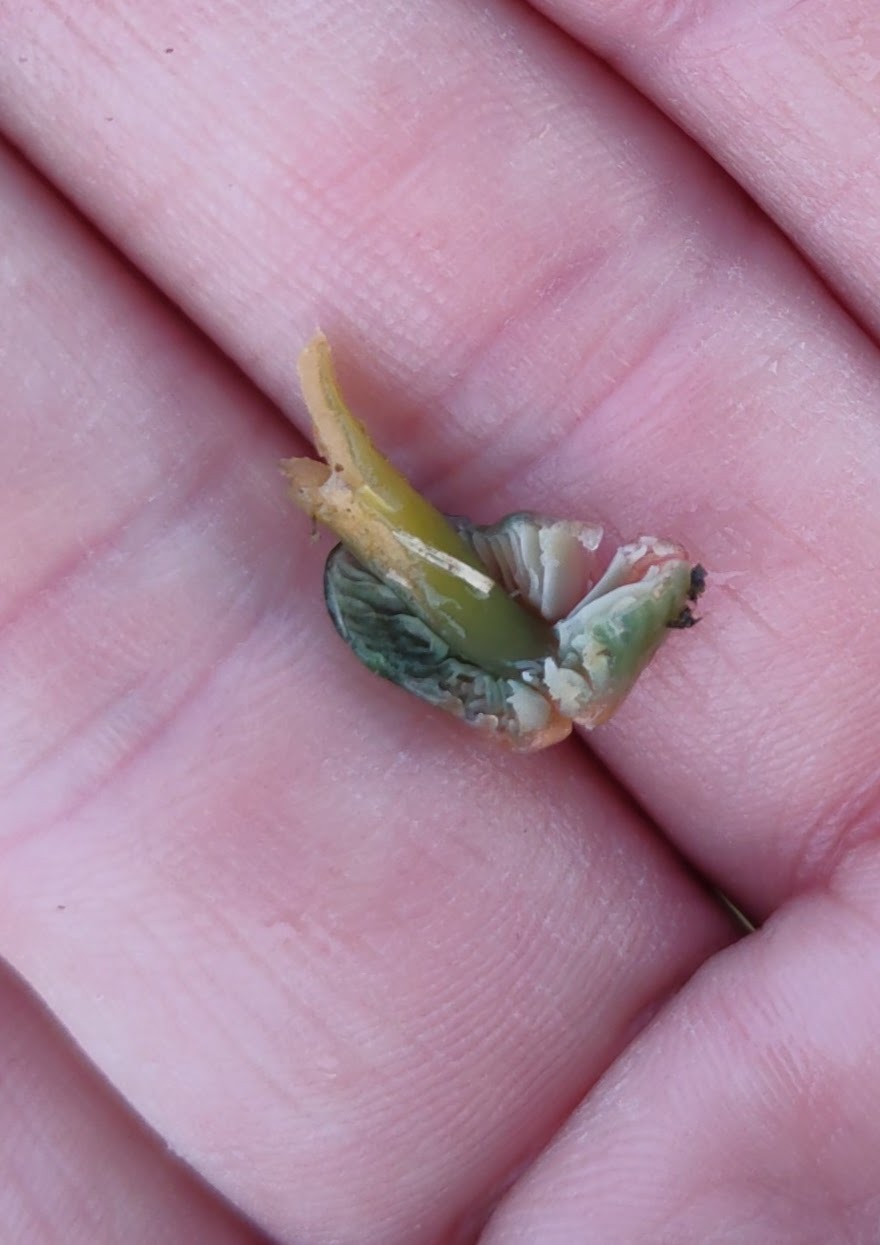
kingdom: Fungi
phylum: Basidiomycota
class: Agaricomycetes
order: Agaricales
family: Hygrophoraceae
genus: Gliophorus
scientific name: Gliophorus psittacinus
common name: Parrot wax-cap
